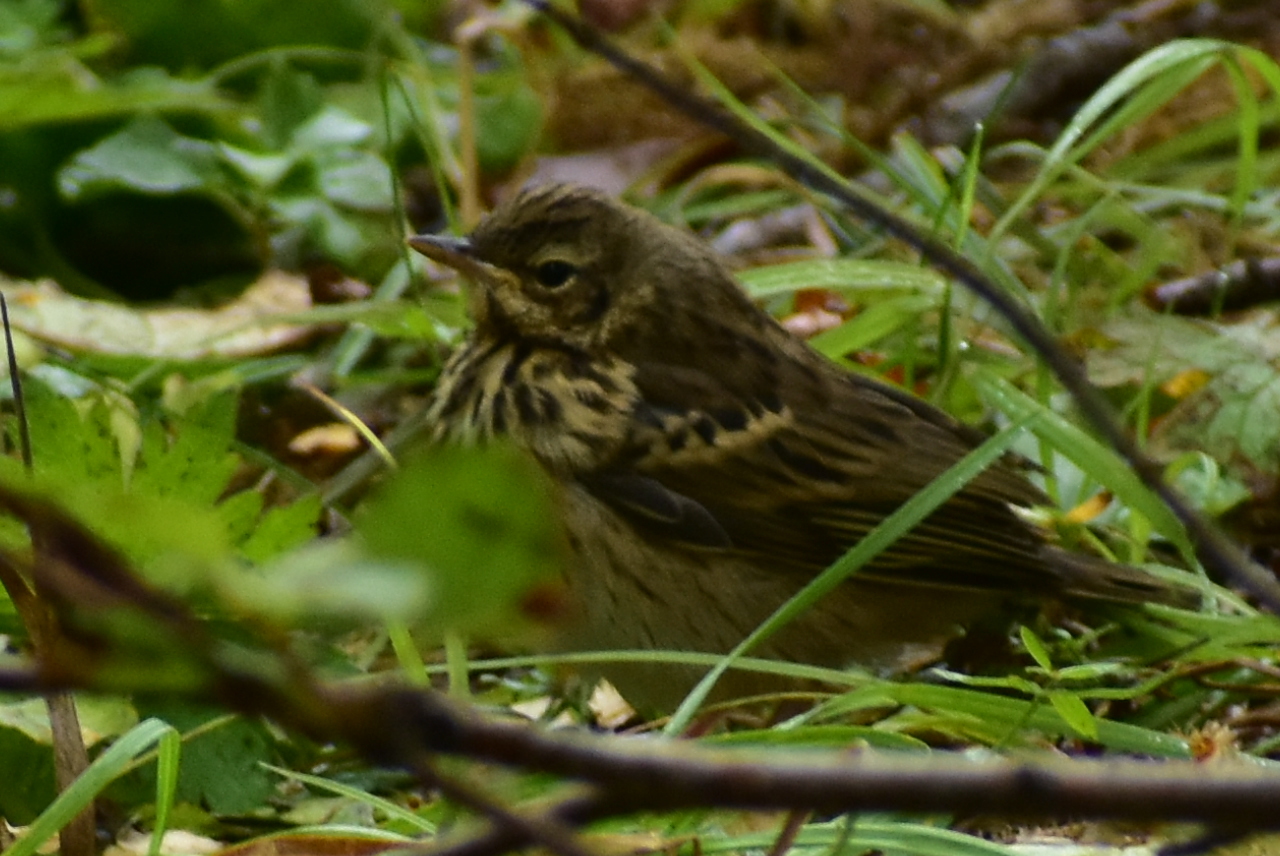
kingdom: Animalia
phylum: Chordata
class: Aves
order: Passeriformes
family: Motacillidae
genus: Anthus
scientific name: Anthus hodgsoni
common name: Olive-backed pipit
